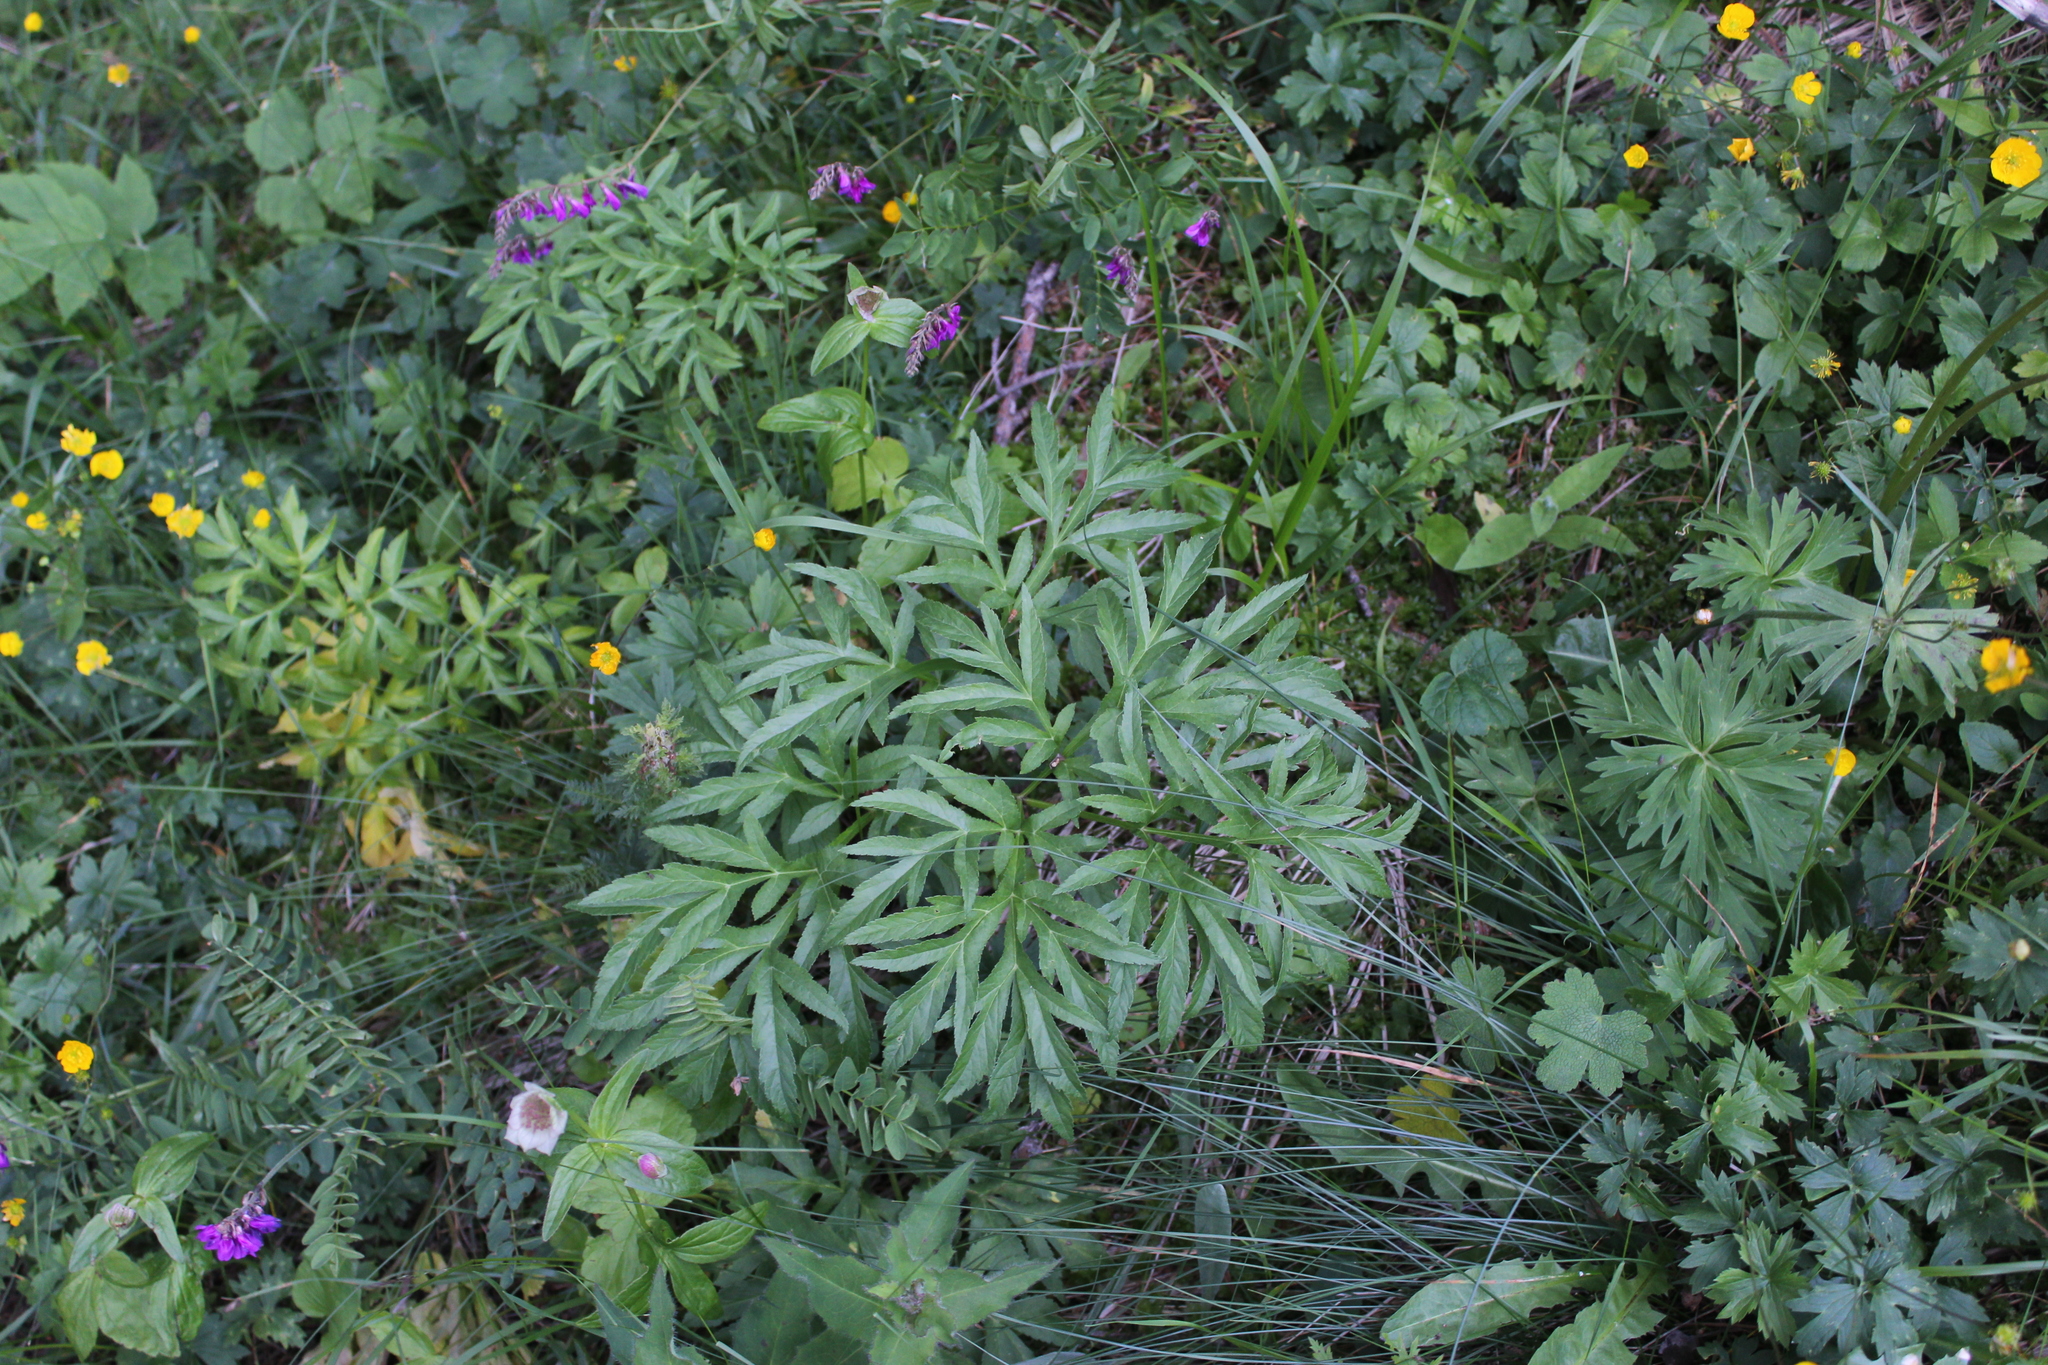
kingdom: Plantae
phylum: Tracheophyta
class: Magnoliopsida
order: Apiales
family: Apiaceae
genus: Agasyllis
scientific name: Agasyllis latifolia
